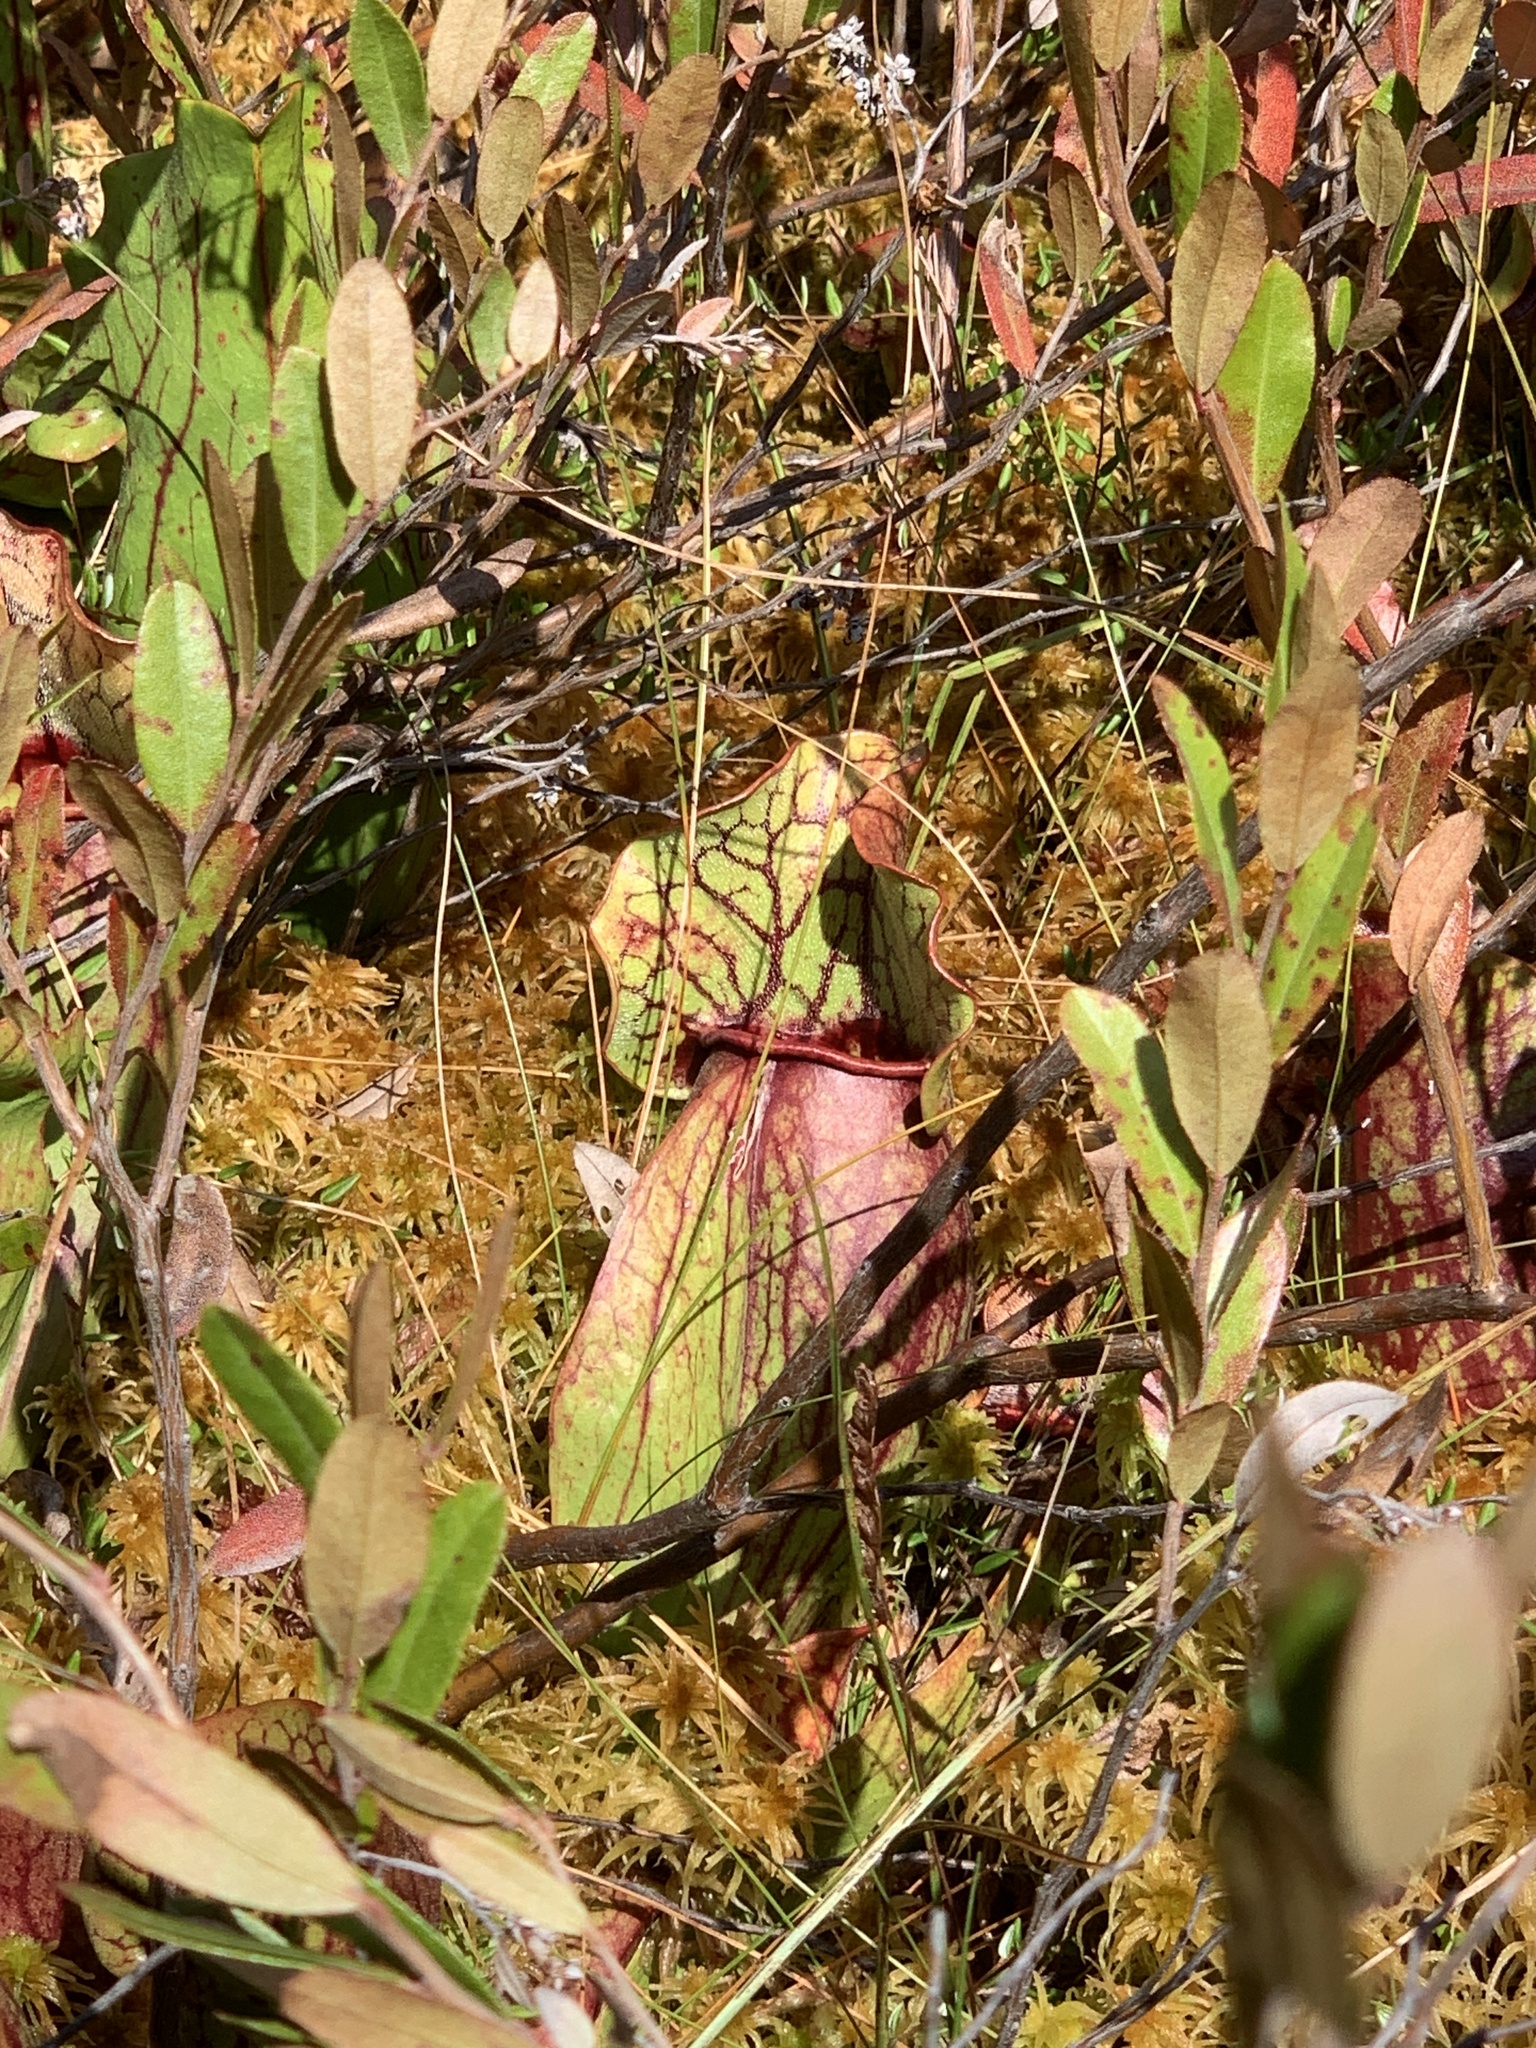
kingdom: Plantae
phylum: Tracheophyta
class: Magnoliopsida
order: Ericales
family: Sarraceniaceae
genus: Sarracenia
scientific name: Sarracenia purpurea
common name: Pitcherplant
